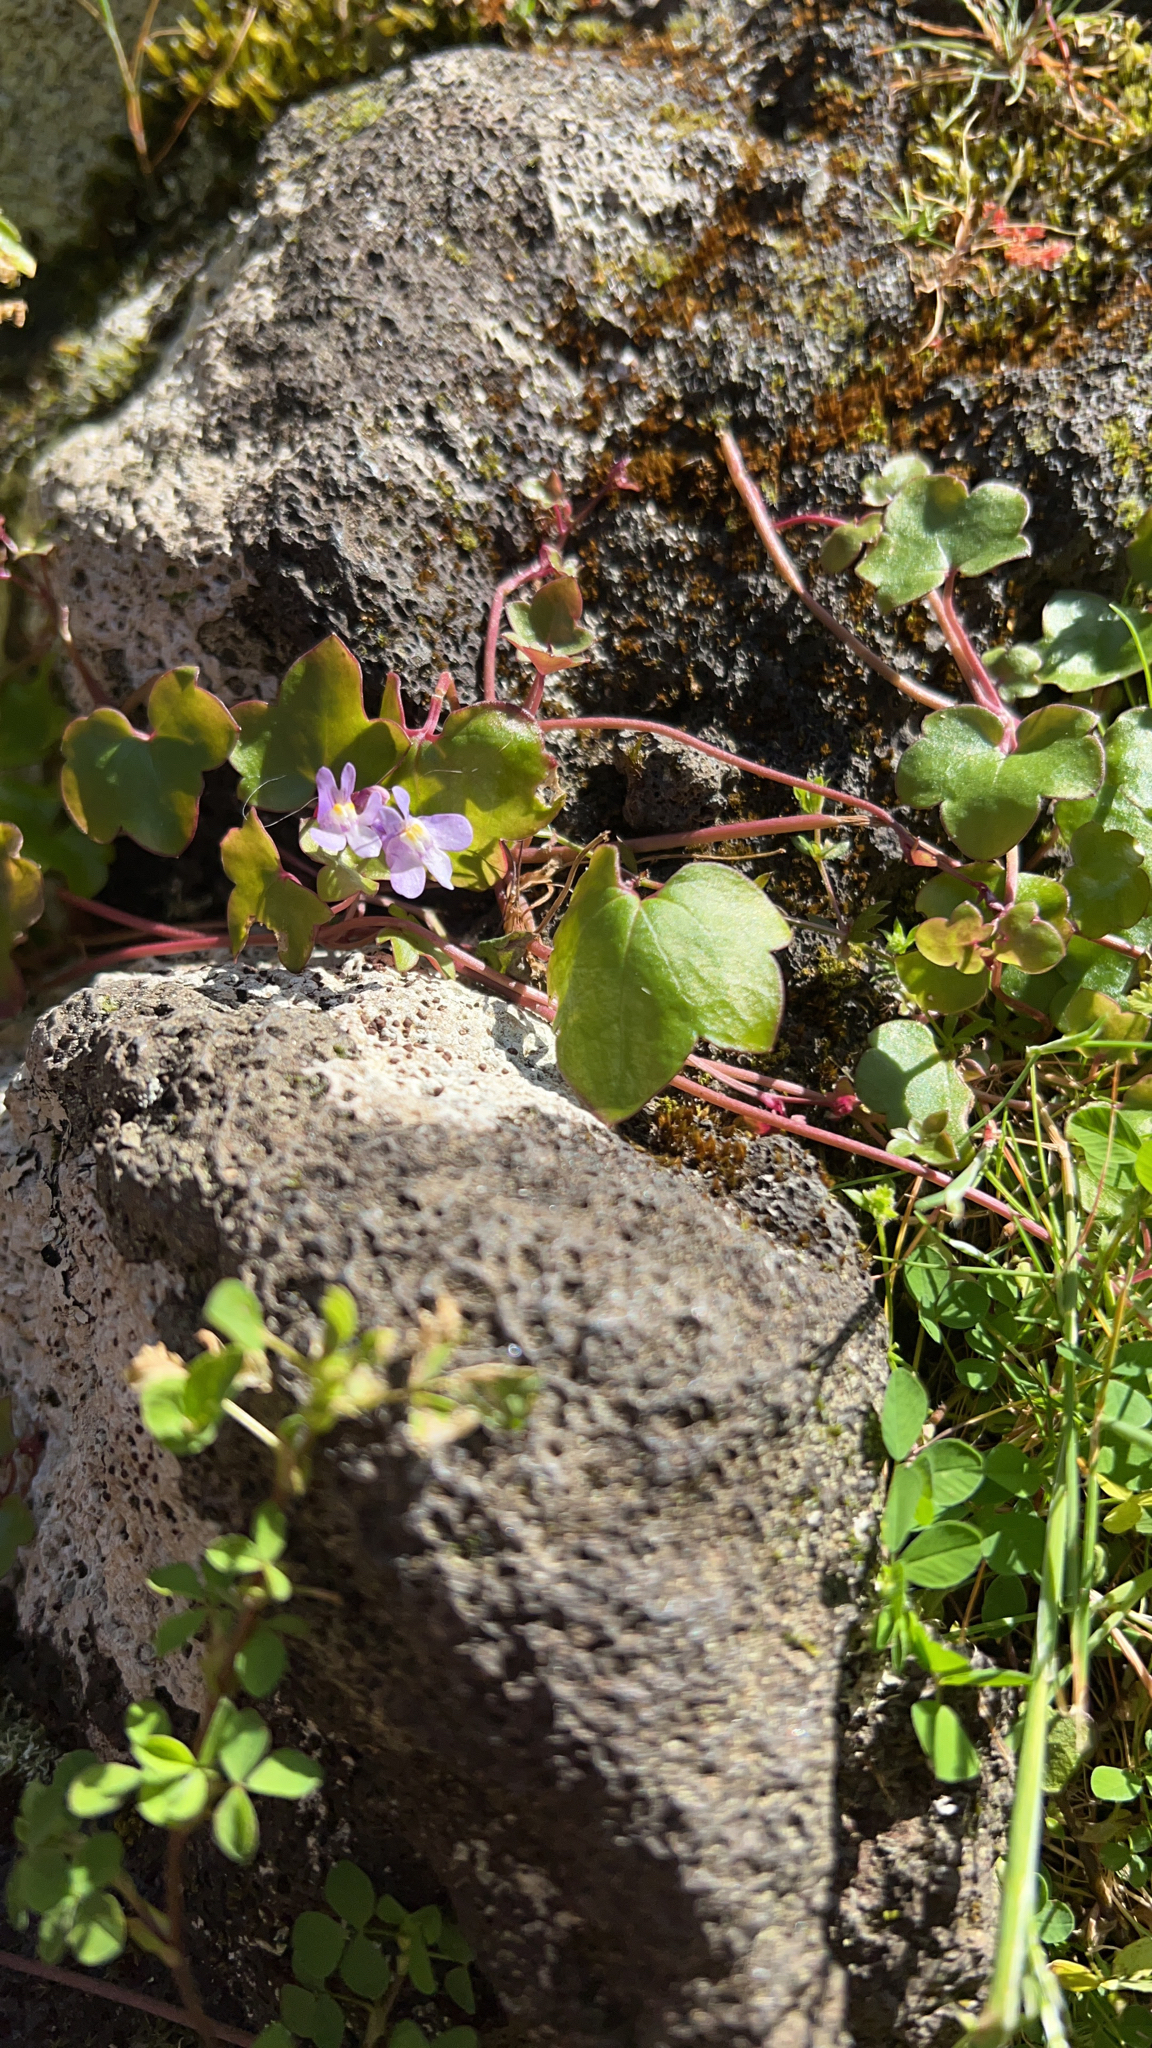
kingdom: Plantae
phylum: Tracheophyta
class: Magnoliopsida
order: Lamiales
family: Plantaginaceae
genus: Cymbalaria
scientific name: Cymbalaria muralis
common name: Ivy-leaved toadflax
